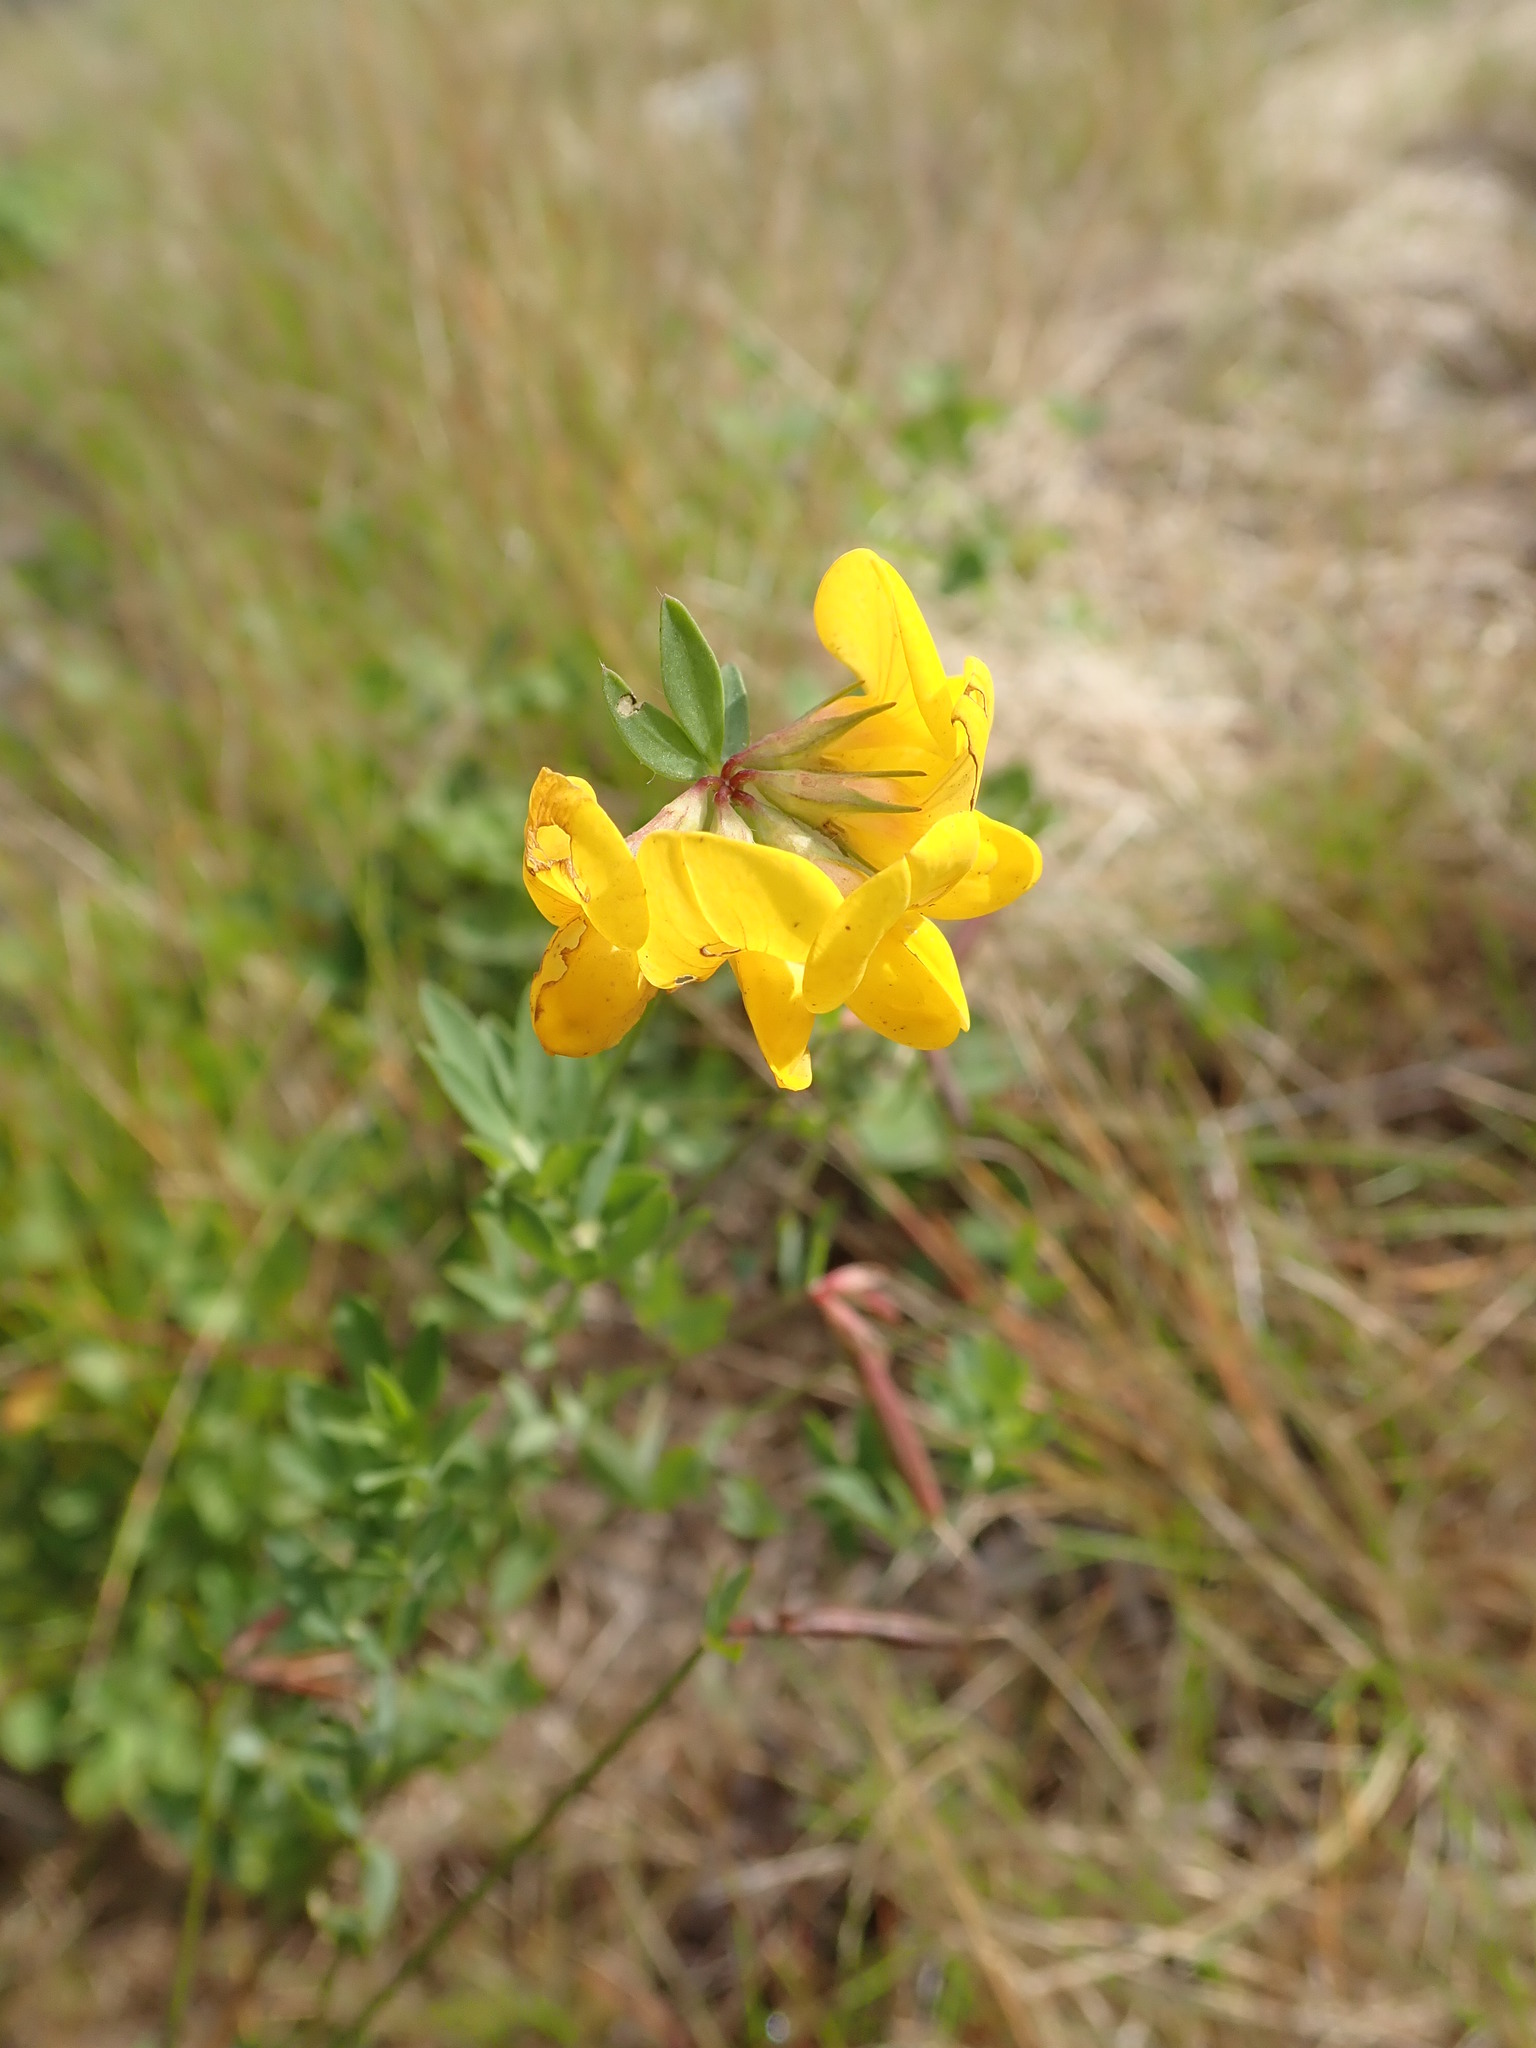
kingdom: Plantae
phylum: Tracheophyta
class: Magnoliopsida
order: Fabales
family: Fabaceae
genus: Lotus
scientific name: Lotus corniculatus
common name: Common bird's-foot-trefoil
